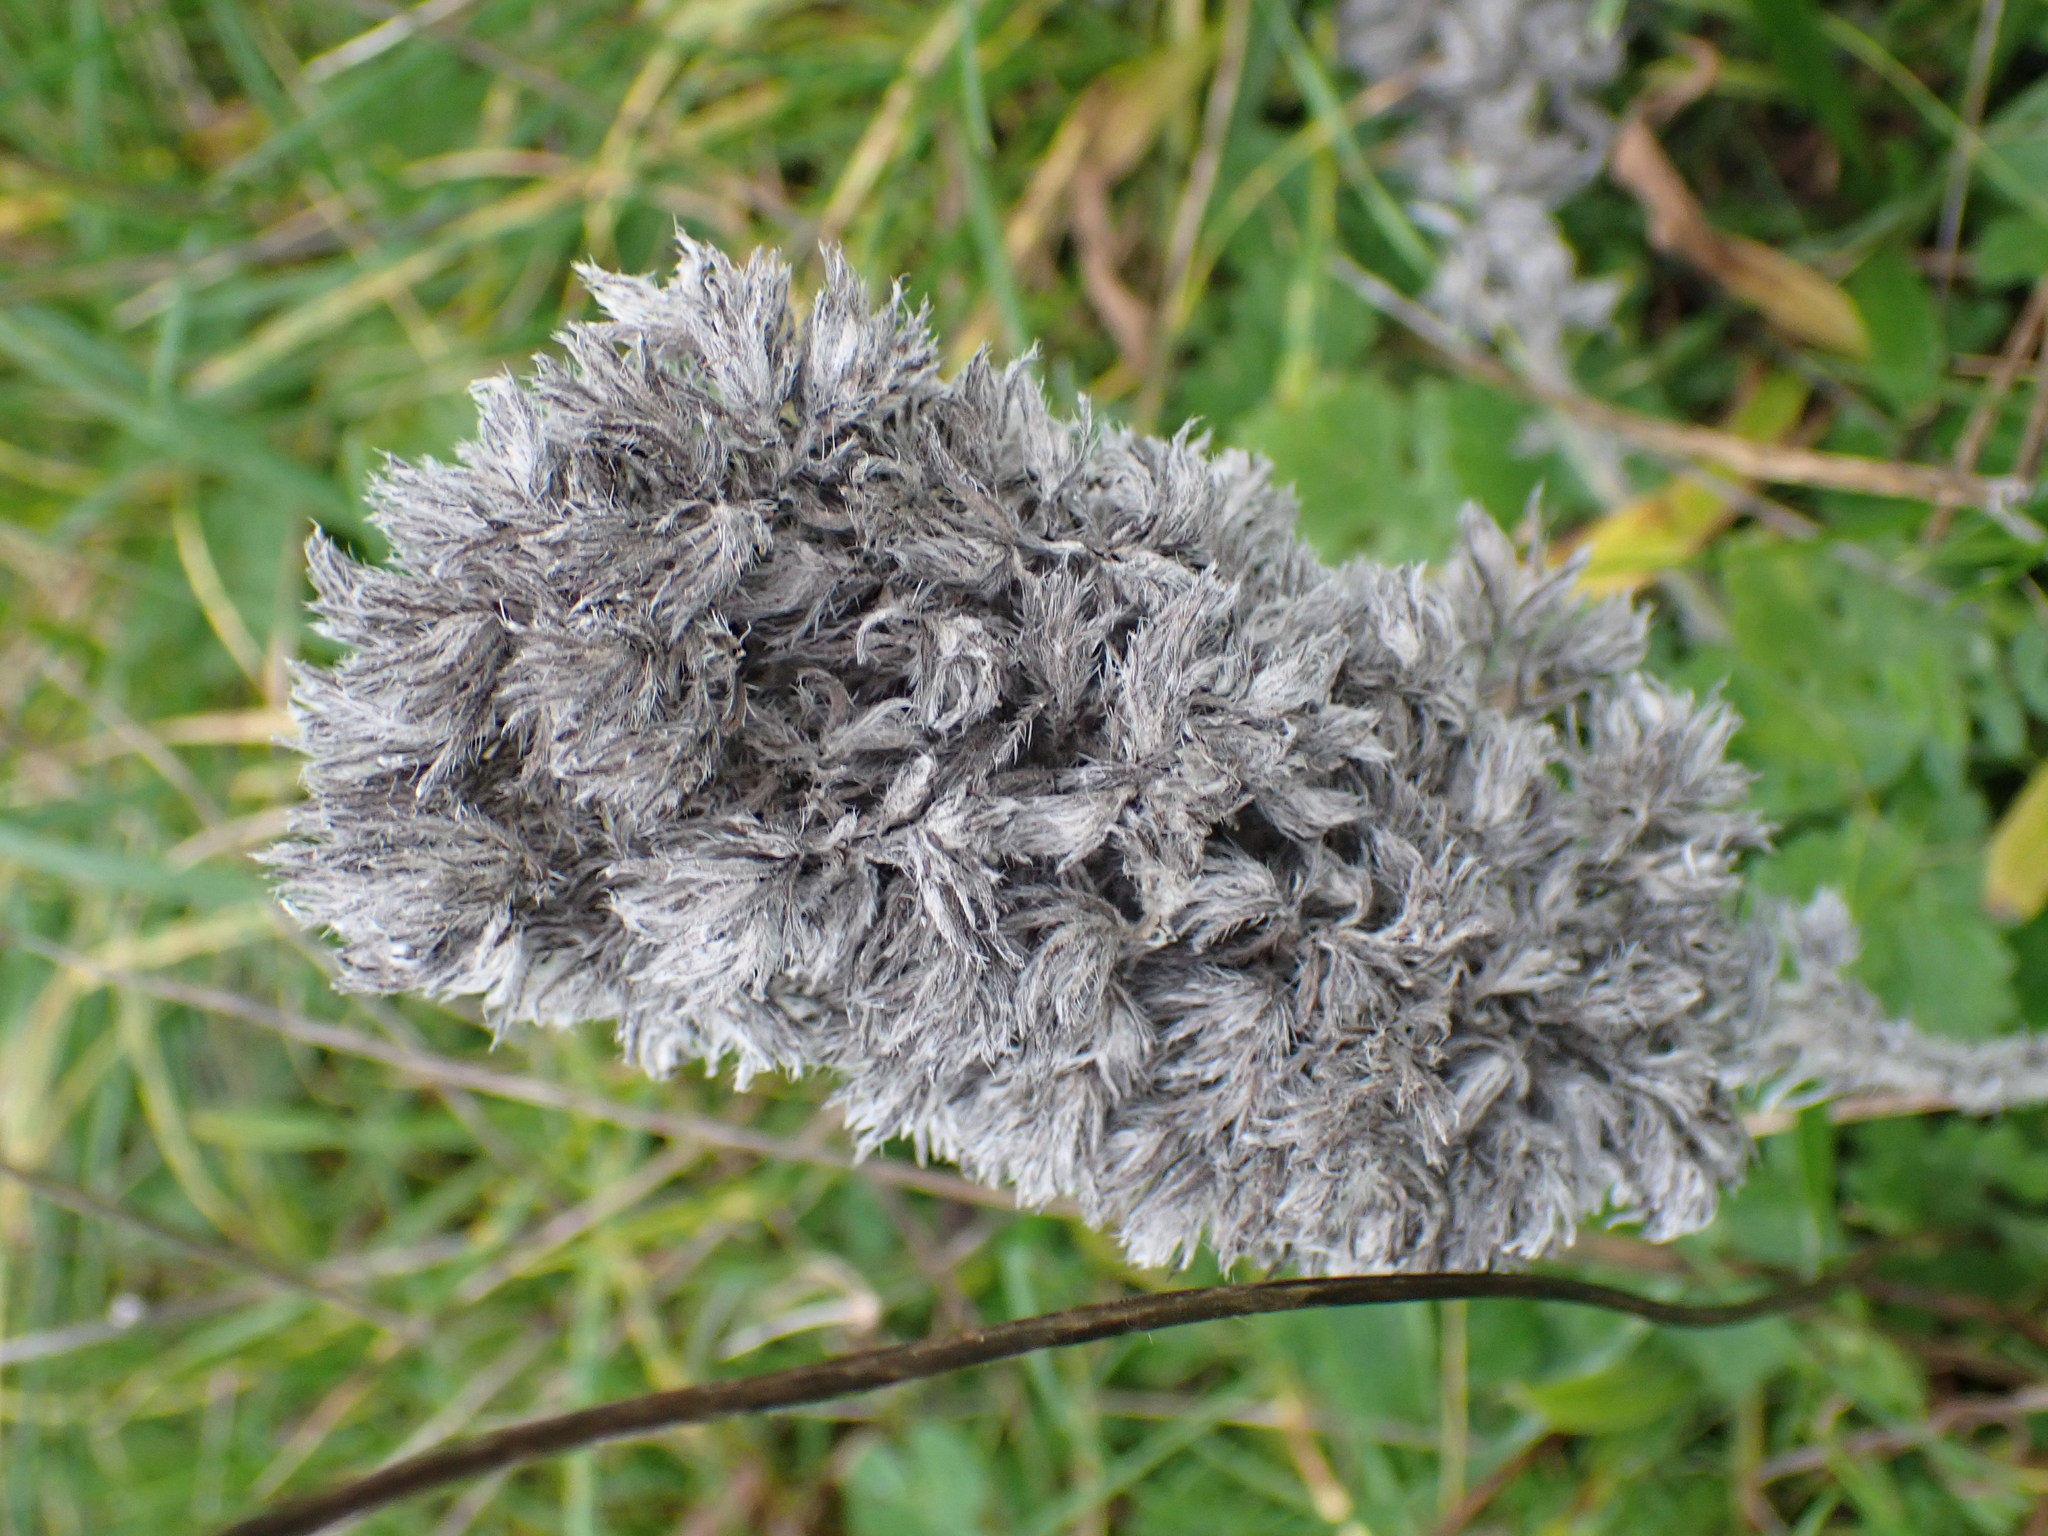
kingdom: Plantae
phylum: Tracheophyta
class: Magnoliopsida
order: Boraginales
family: Boraginaceae
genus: Echium
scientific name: Echium vulgare
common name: Common viper's bugloss
